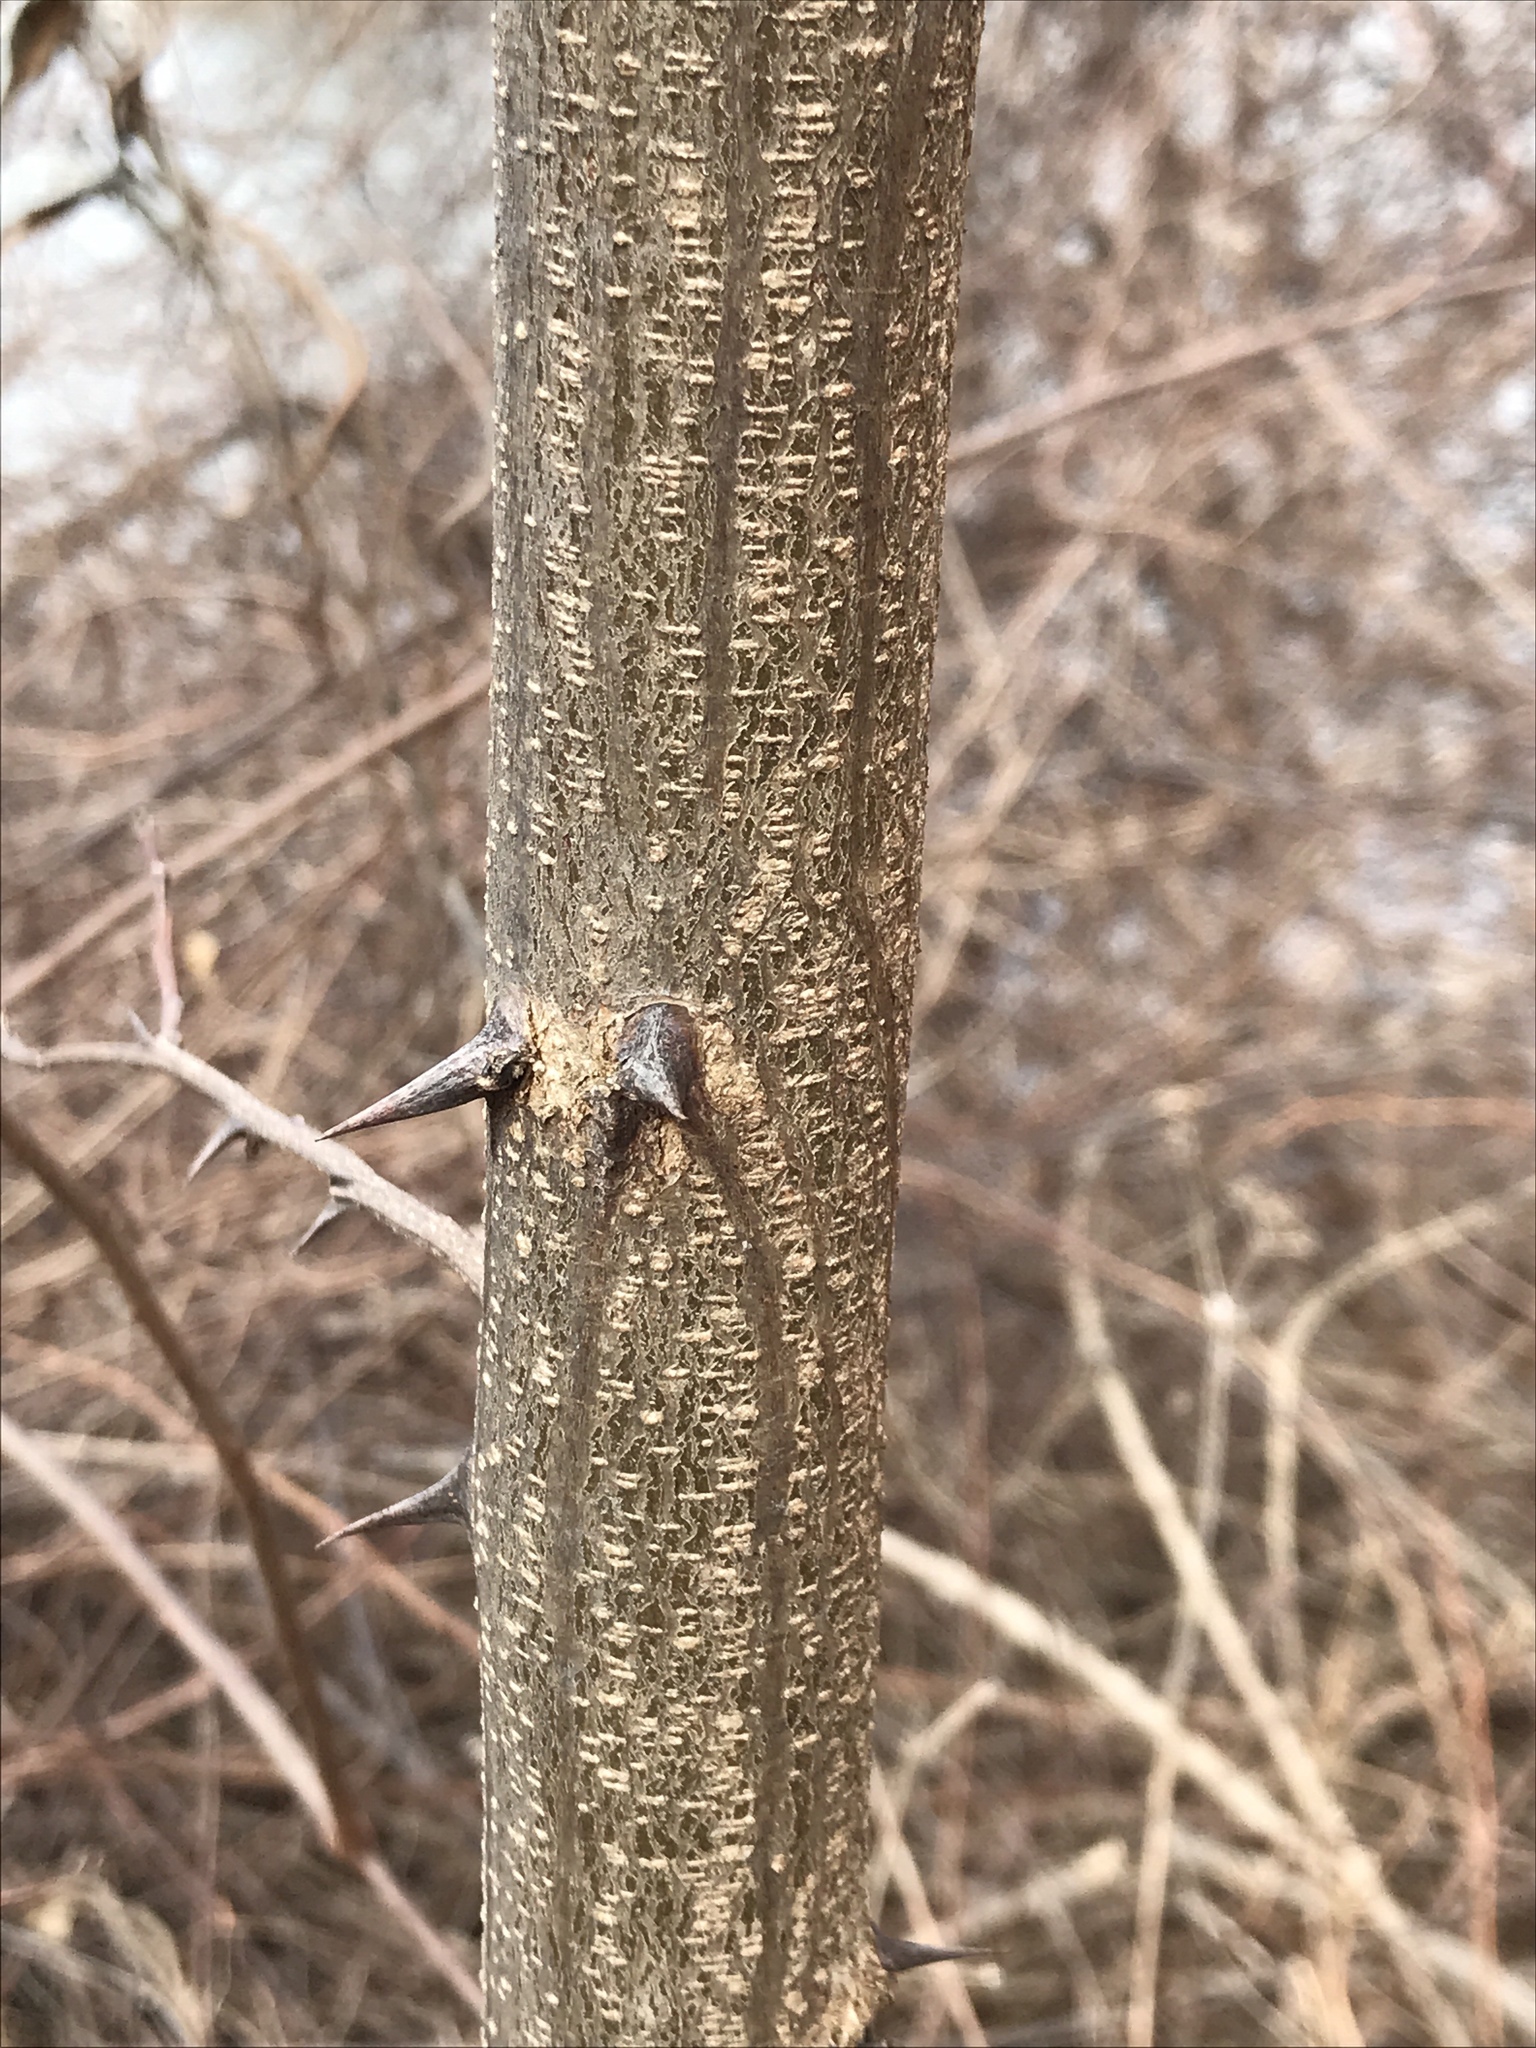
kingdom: Plantae
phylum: Tracheophyta
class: Magnoliopsida
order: Fabales
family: Fabaceae
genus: Robinia
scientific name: Robinia pseudoacacia
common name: Black locust
